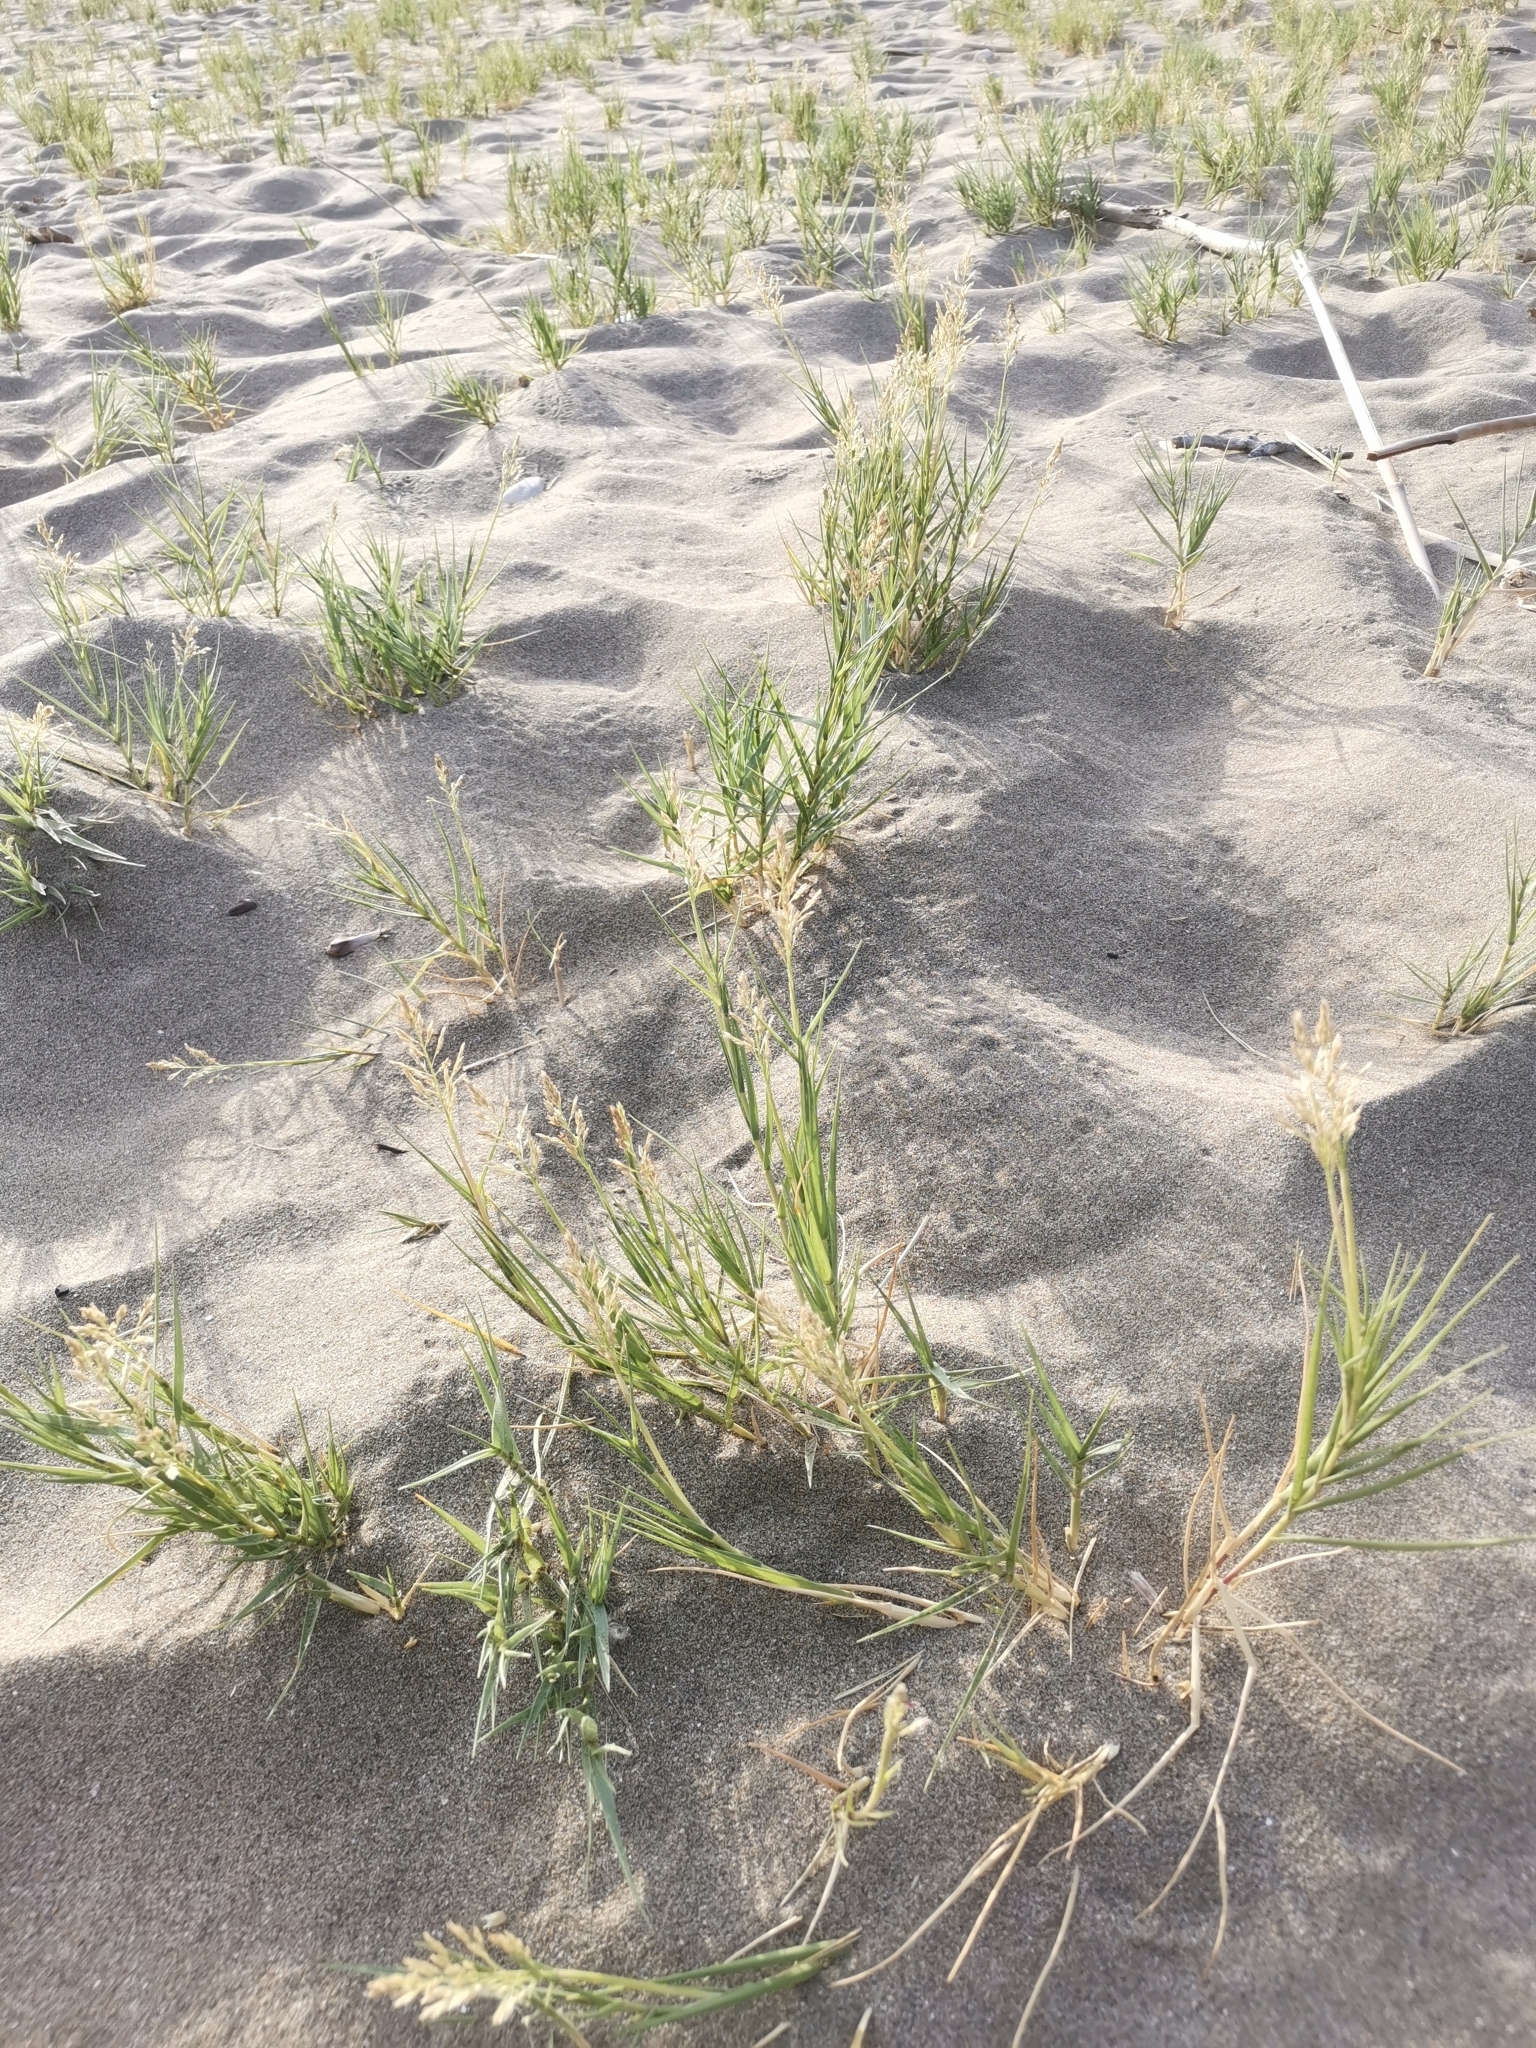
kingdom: Plantae
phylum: Tracheophyta
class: Liliopsida
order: Poales
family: Poaceae
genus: Sporobolus
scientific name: Sporobolus pungens
